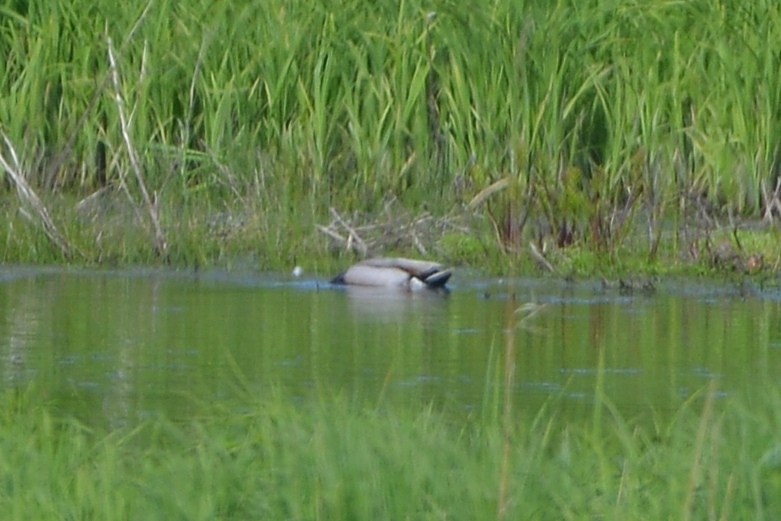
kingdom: Animalia
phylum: Chordata
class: Aves
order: Anseriformes
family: Anatidae
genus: Anas
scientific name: Anas platyrhynchos
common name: Mallard
